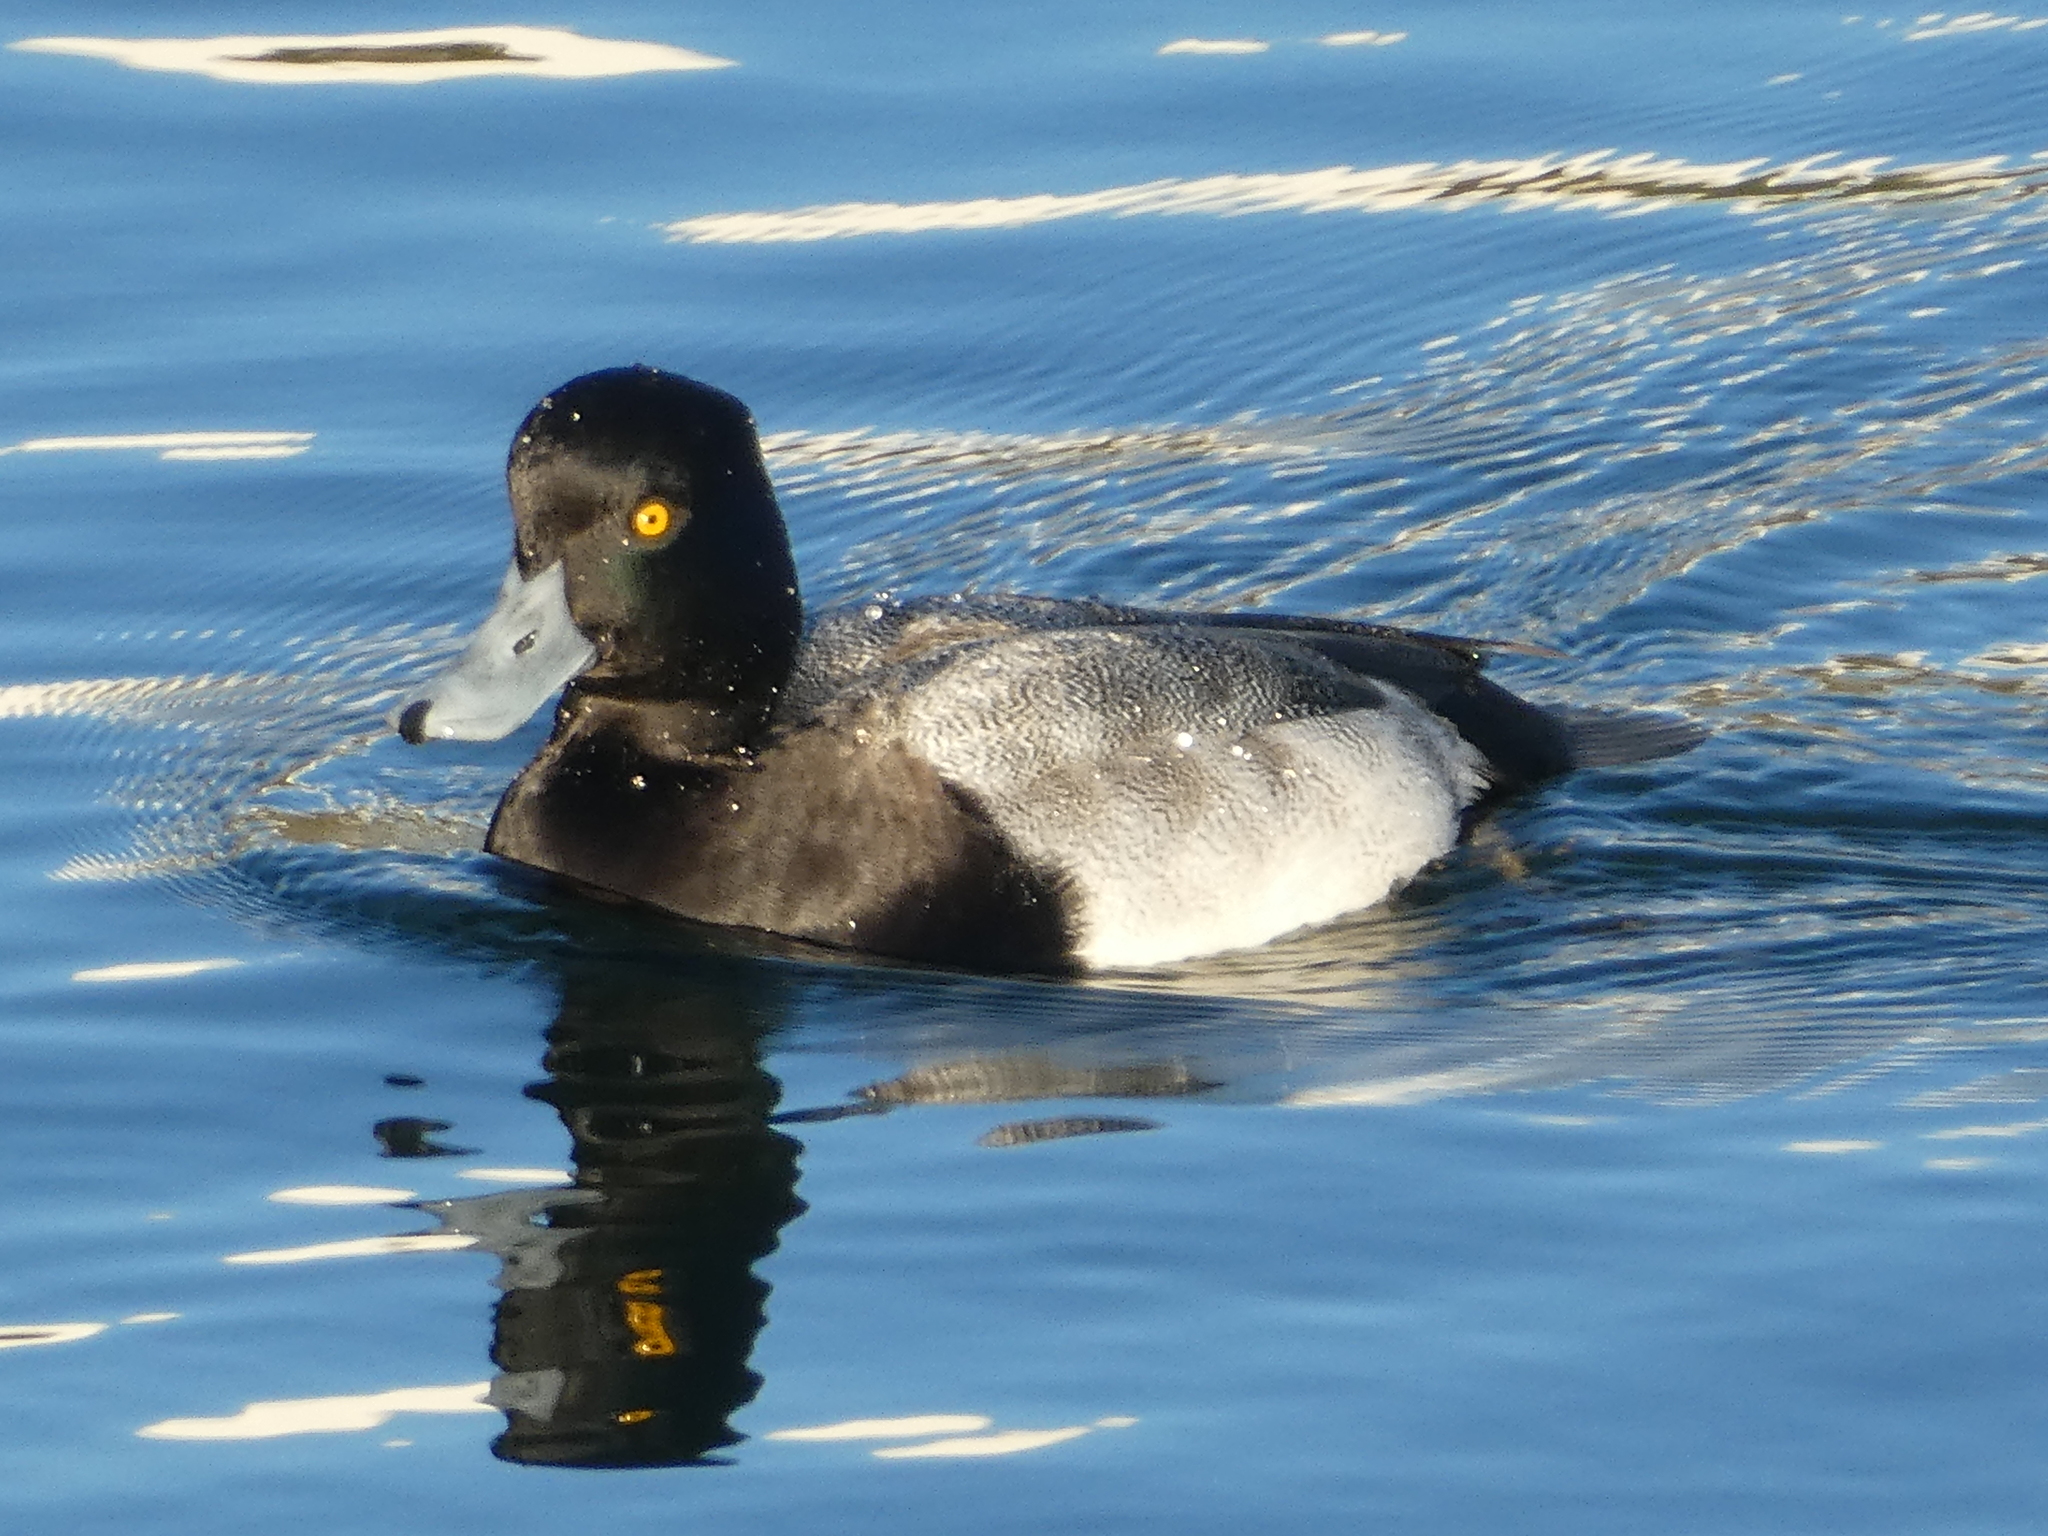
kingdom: Animalia
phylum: Chordata
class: Aves
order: Anseriformes
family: Anatidae
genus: Aythya
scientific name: Aythya affinis
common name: Lesser scaup
